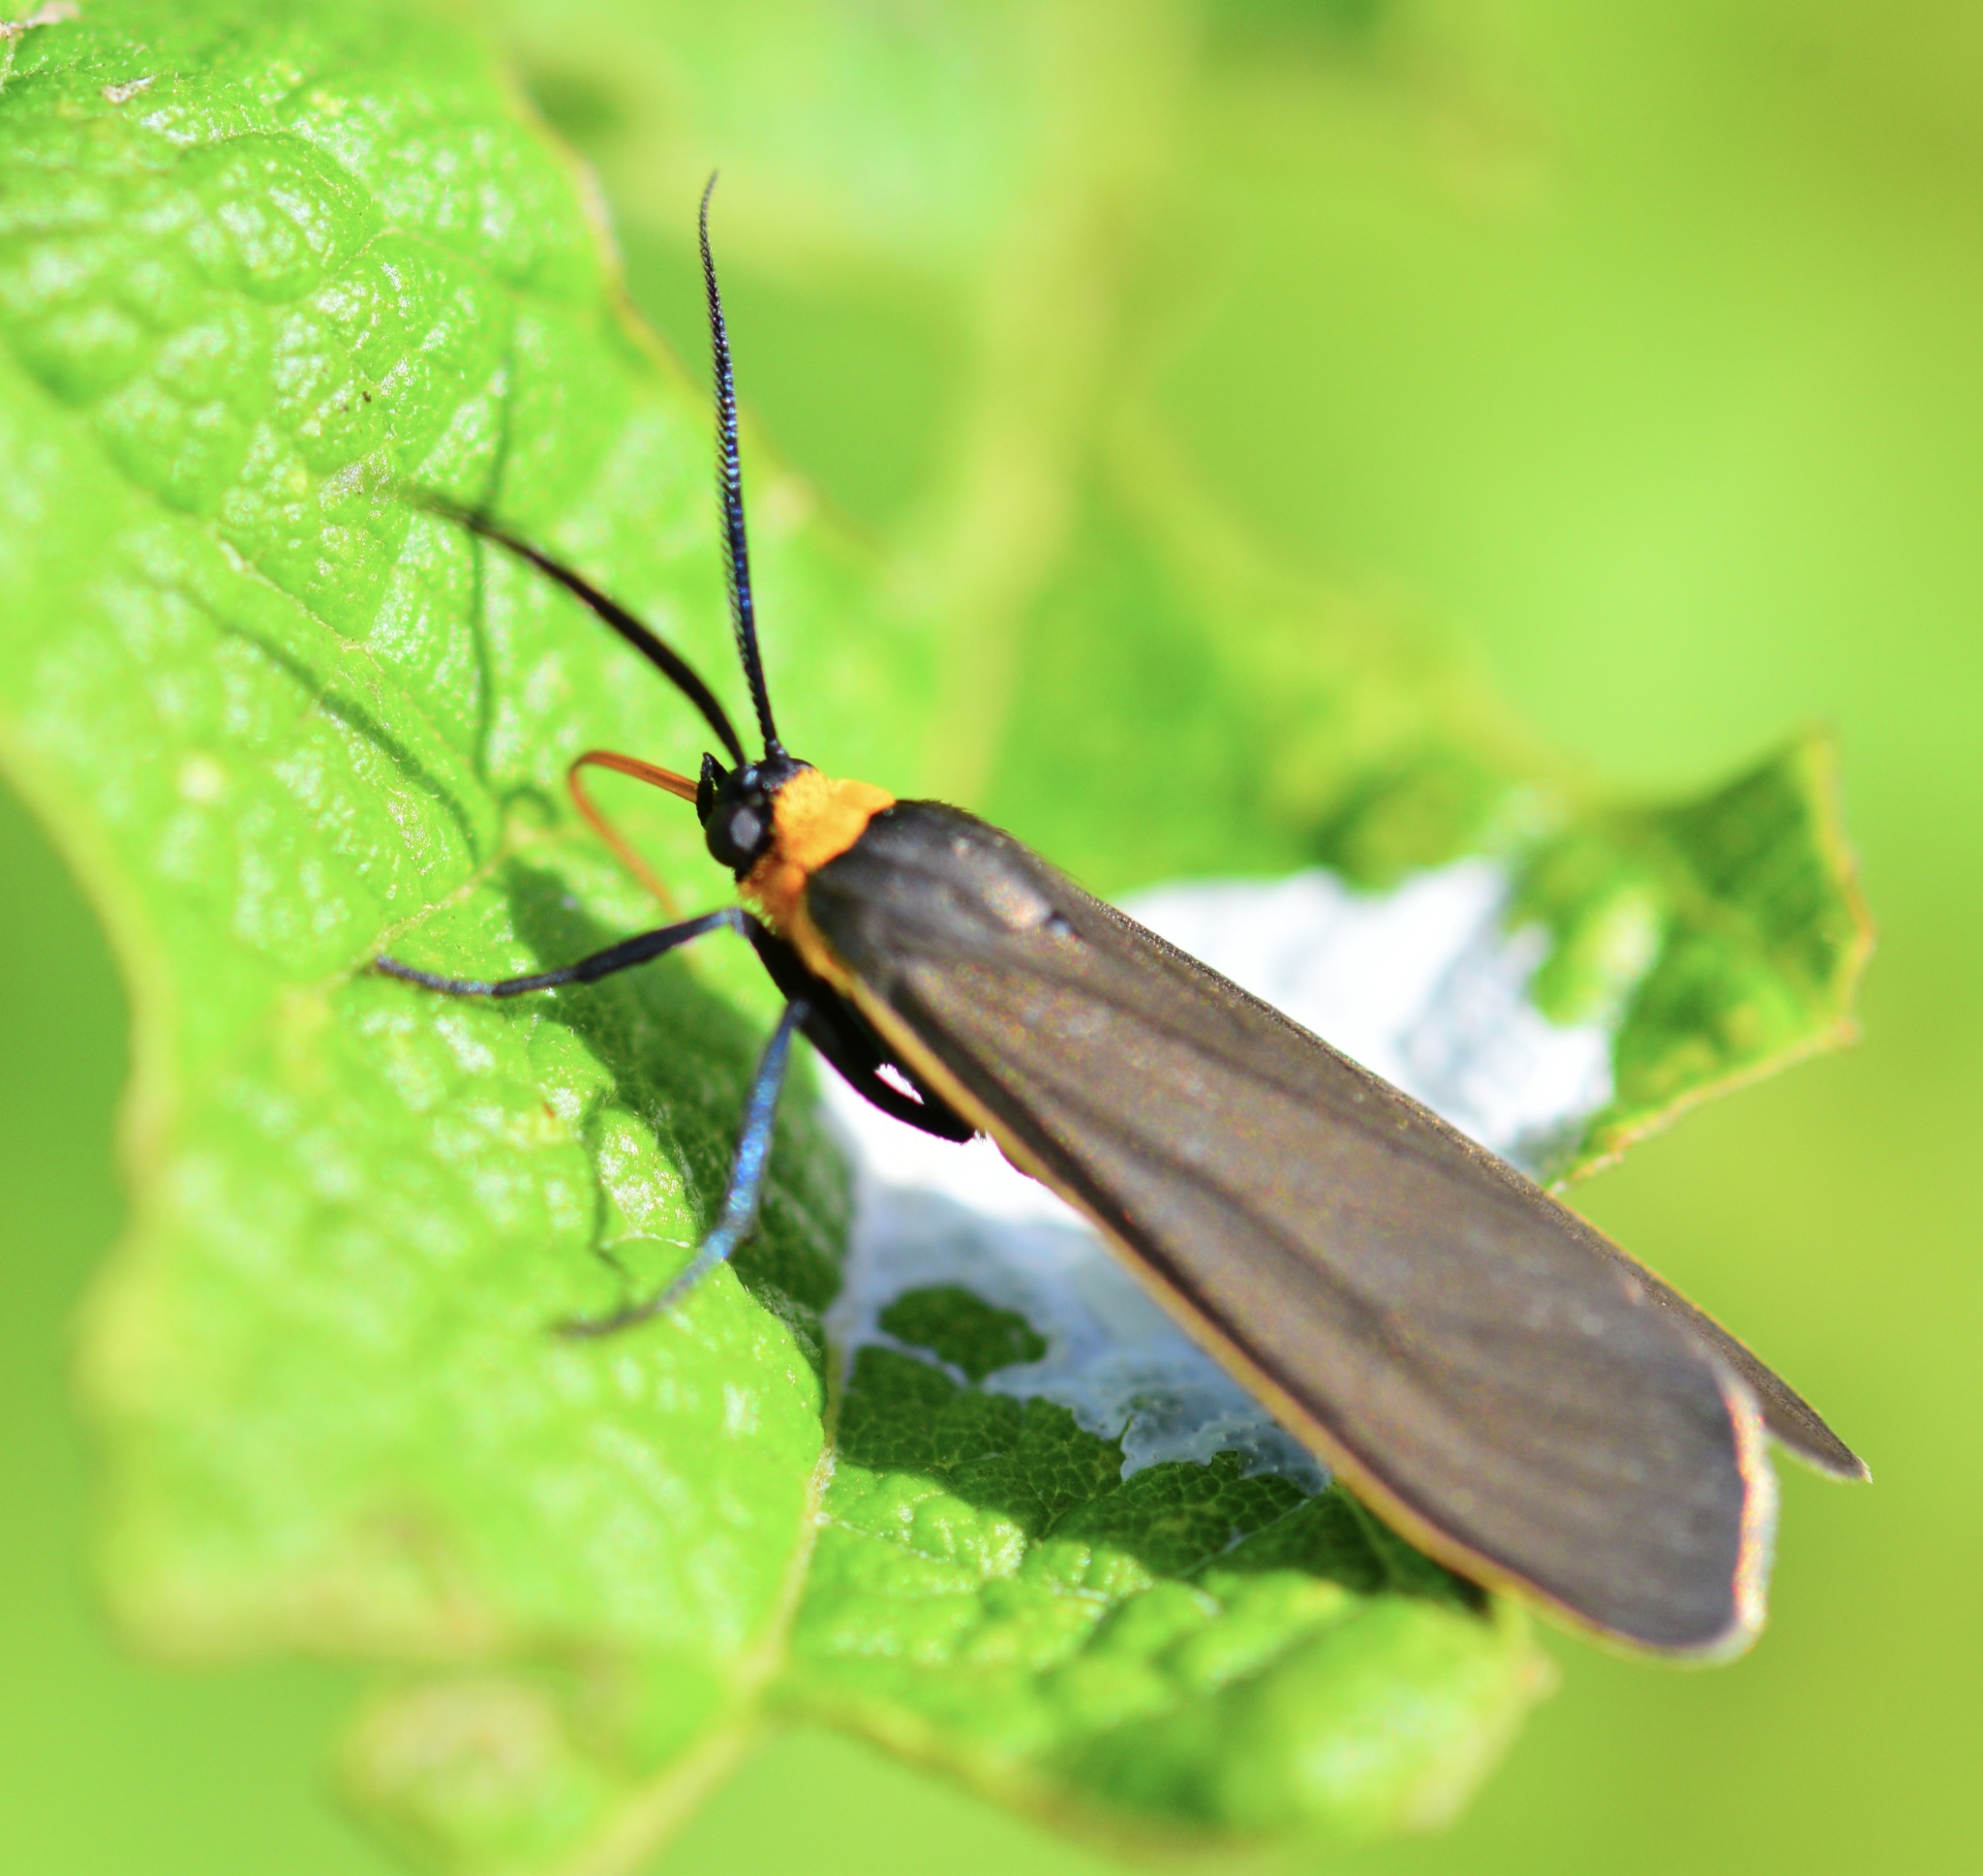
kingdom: Animalia
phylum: Arthropoda
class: Insecta
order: Lepidoptera
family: Erebidae
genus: Cisseps
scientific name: Cisseps fulvicollis
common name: Yellow-collared scape moth
